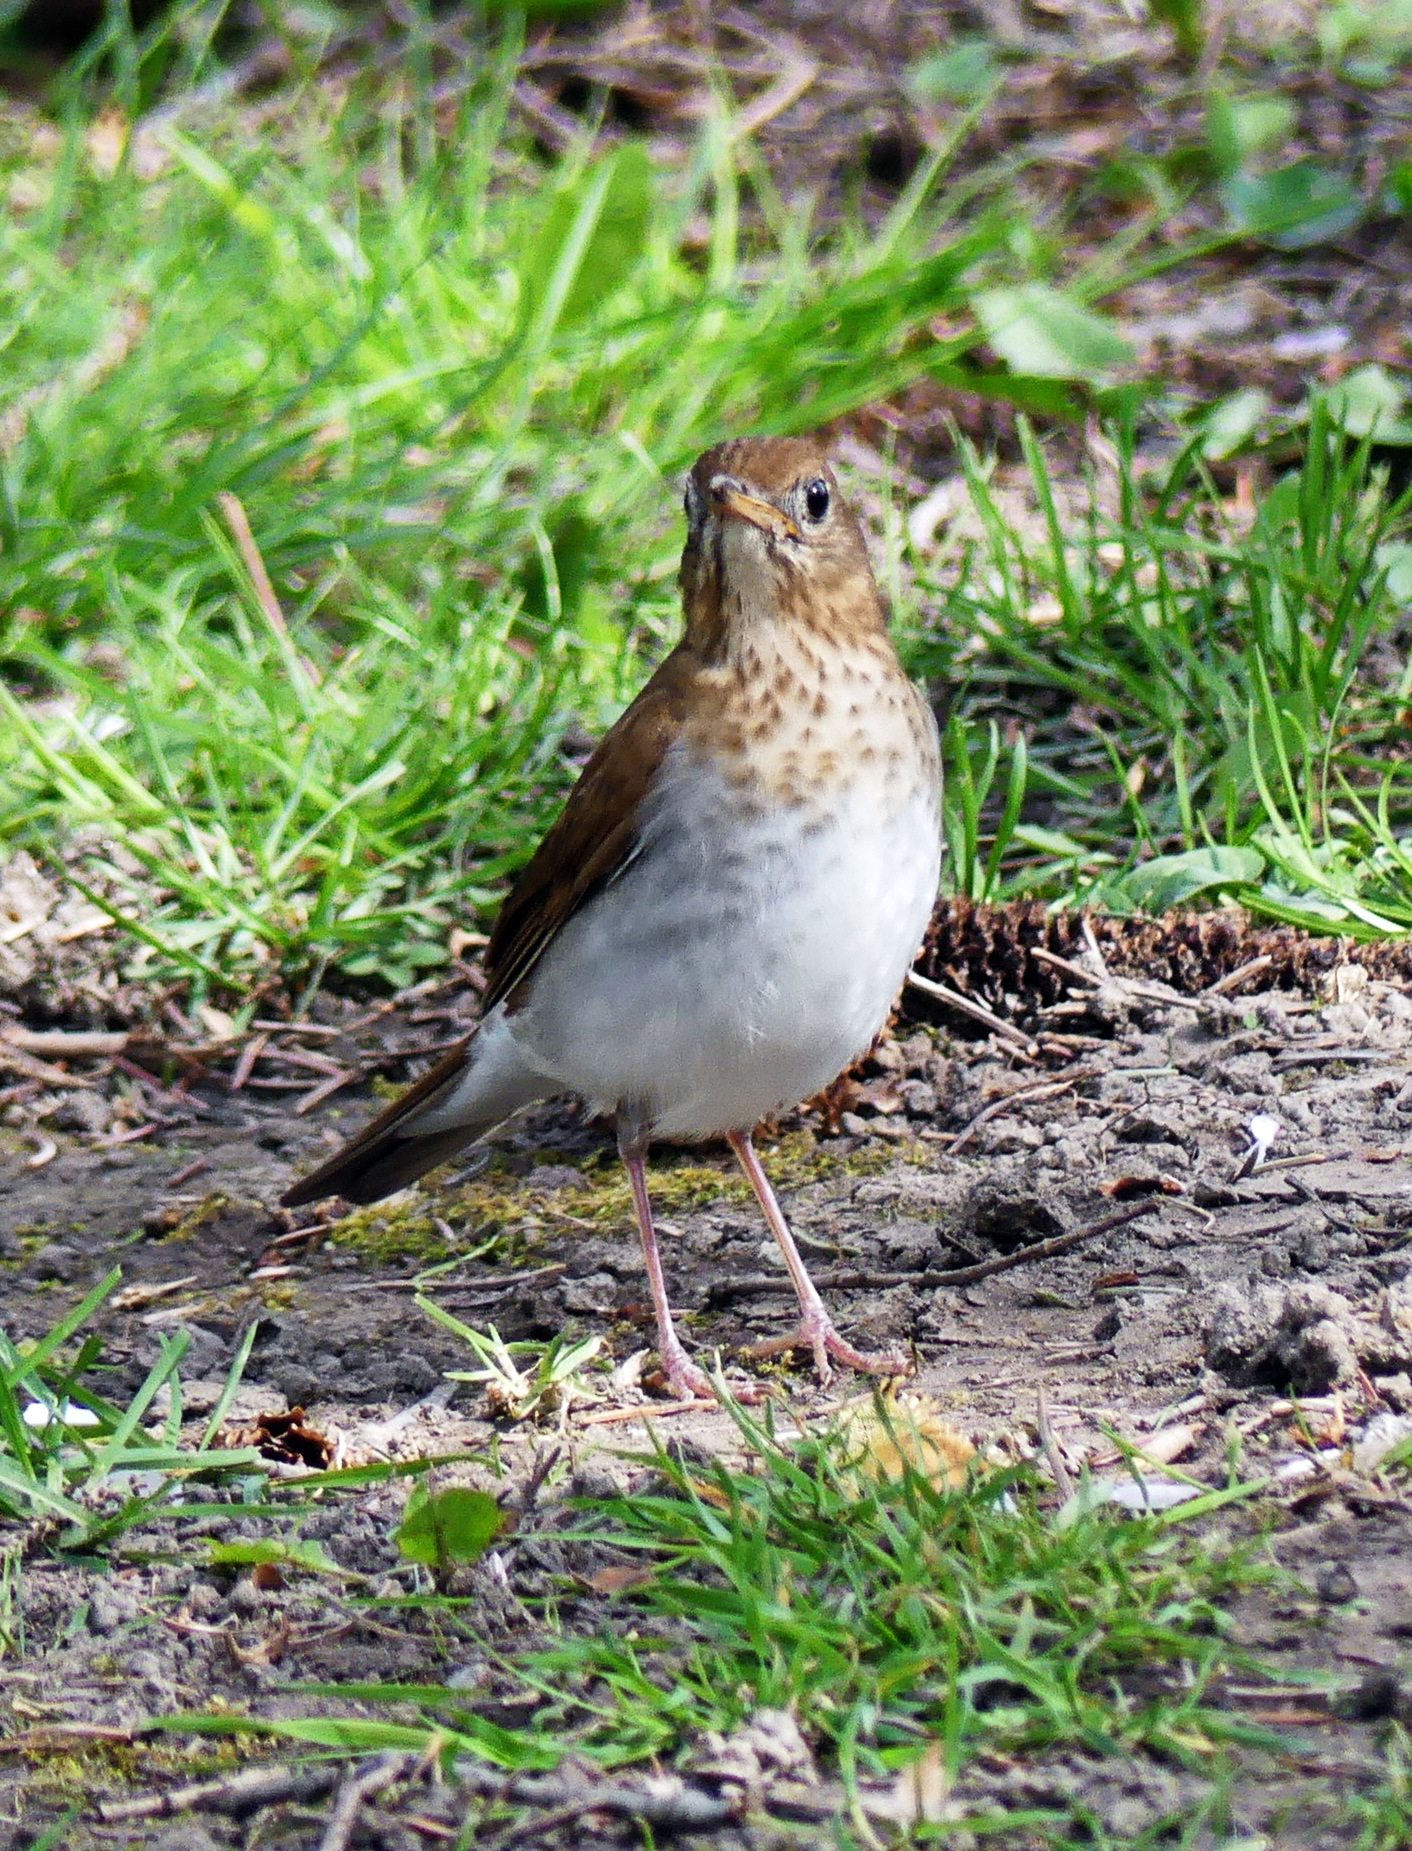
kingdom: Animalia
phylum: Chordata
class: Aves
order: Passeriformes
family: Turdidae
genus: Catharus
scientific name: Catharus fuscescens
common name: Veery
